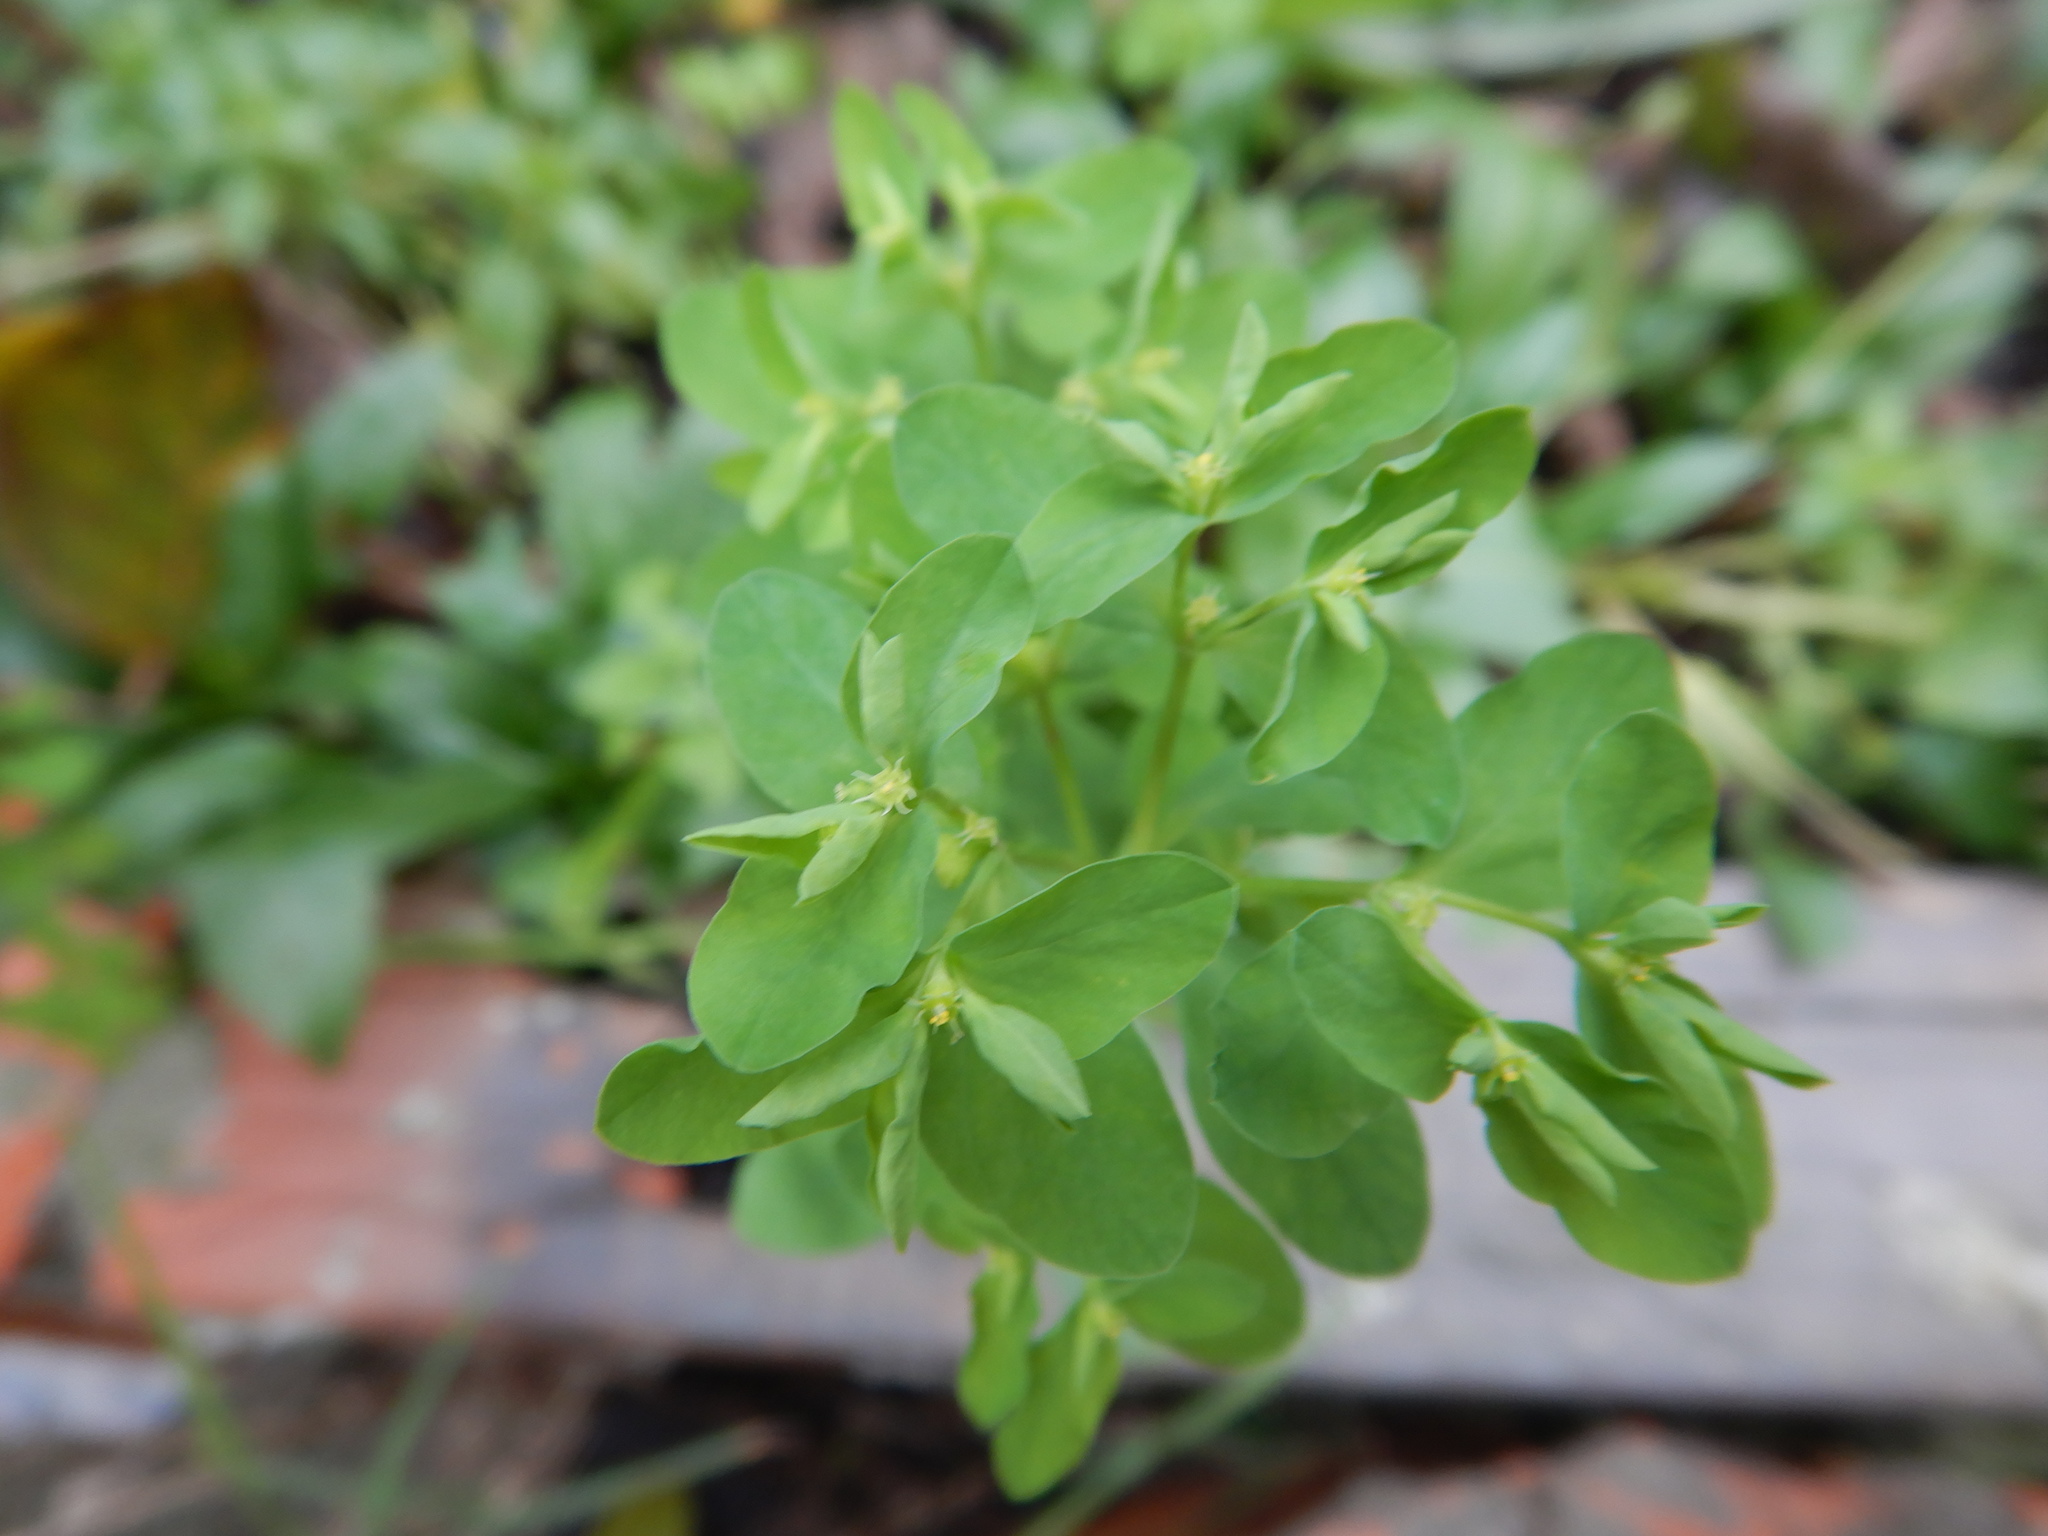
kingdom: Plantae
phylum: Tracheophyta
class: Magnoliopsida
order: Malpighiales
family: Euphorbiaceae
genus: Euphorbia
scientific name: Euphorbia peplus
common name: Petty spurge
